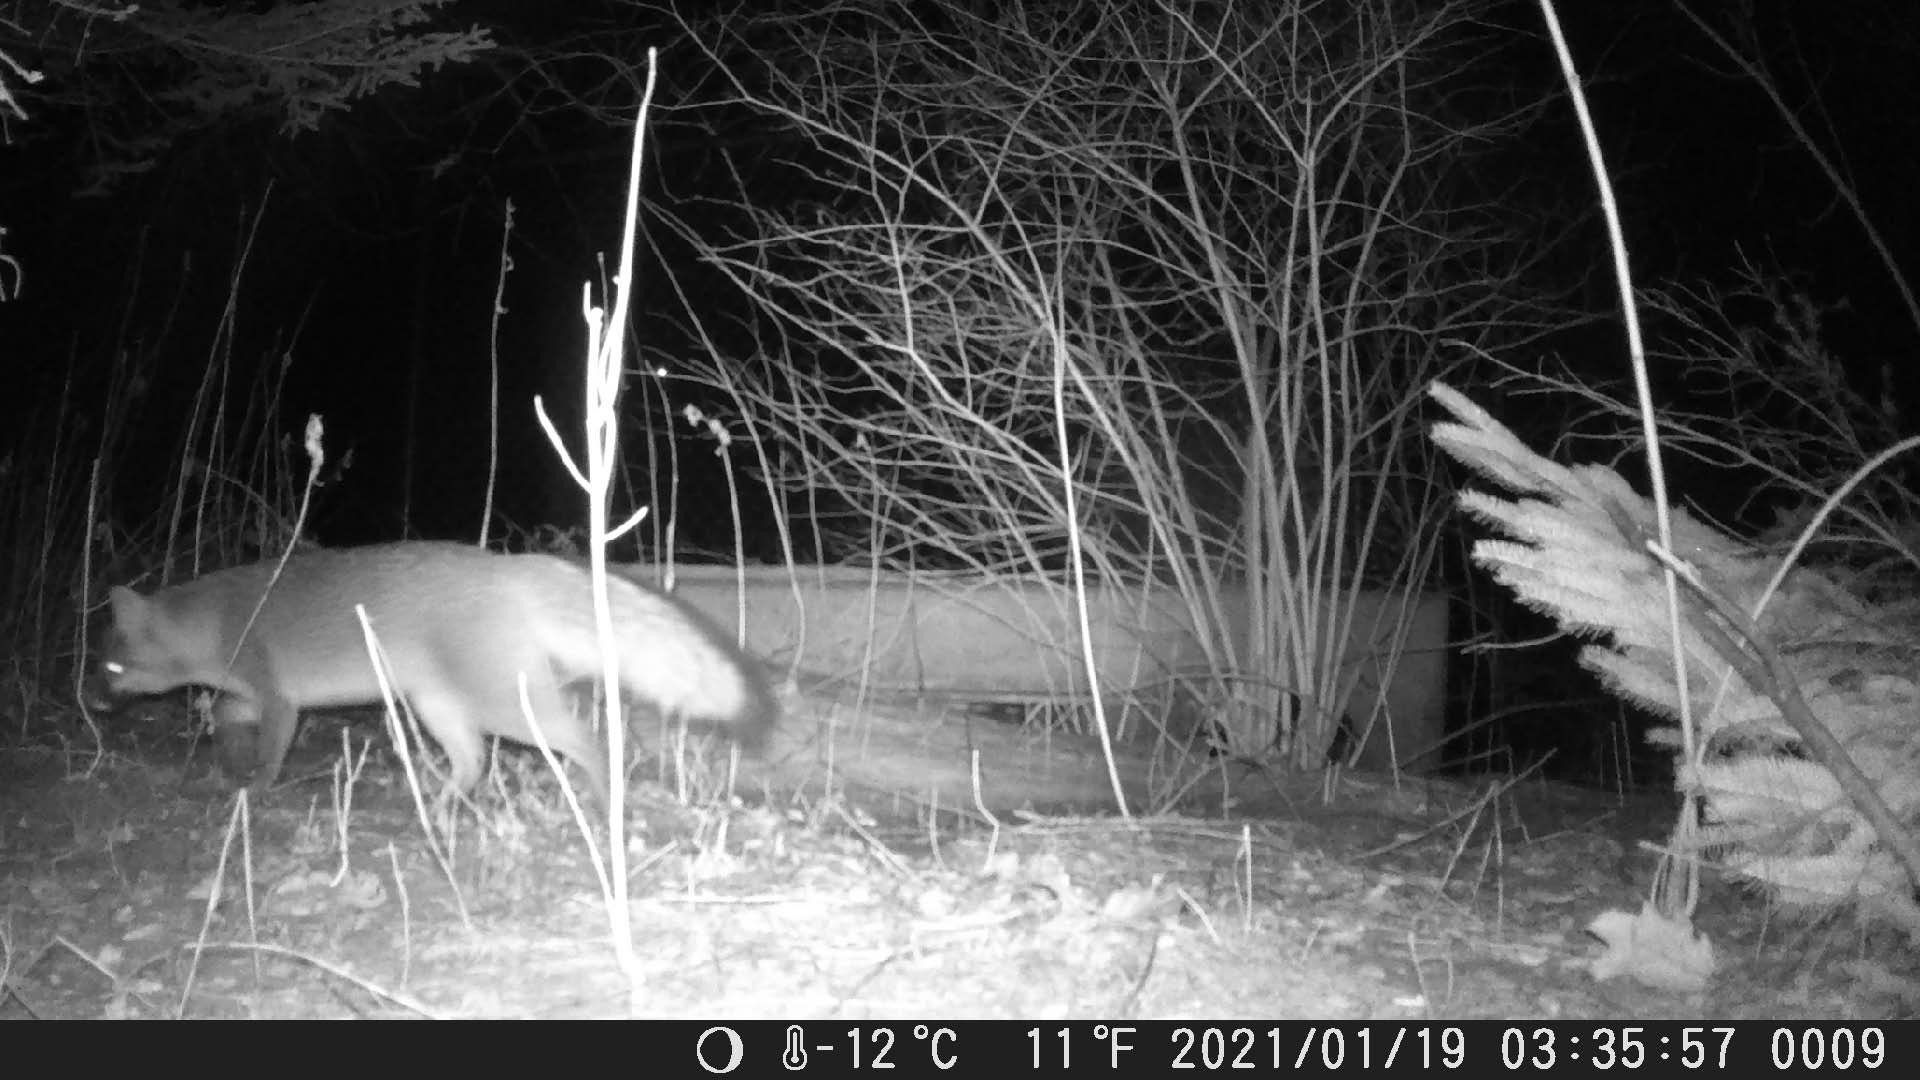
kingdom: Animalia
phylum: Chordata
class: Mammalia
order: Carnivora
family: Canidae
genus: Urocyon
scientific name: Urocyon cinereoargenteus
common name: Gray fox
